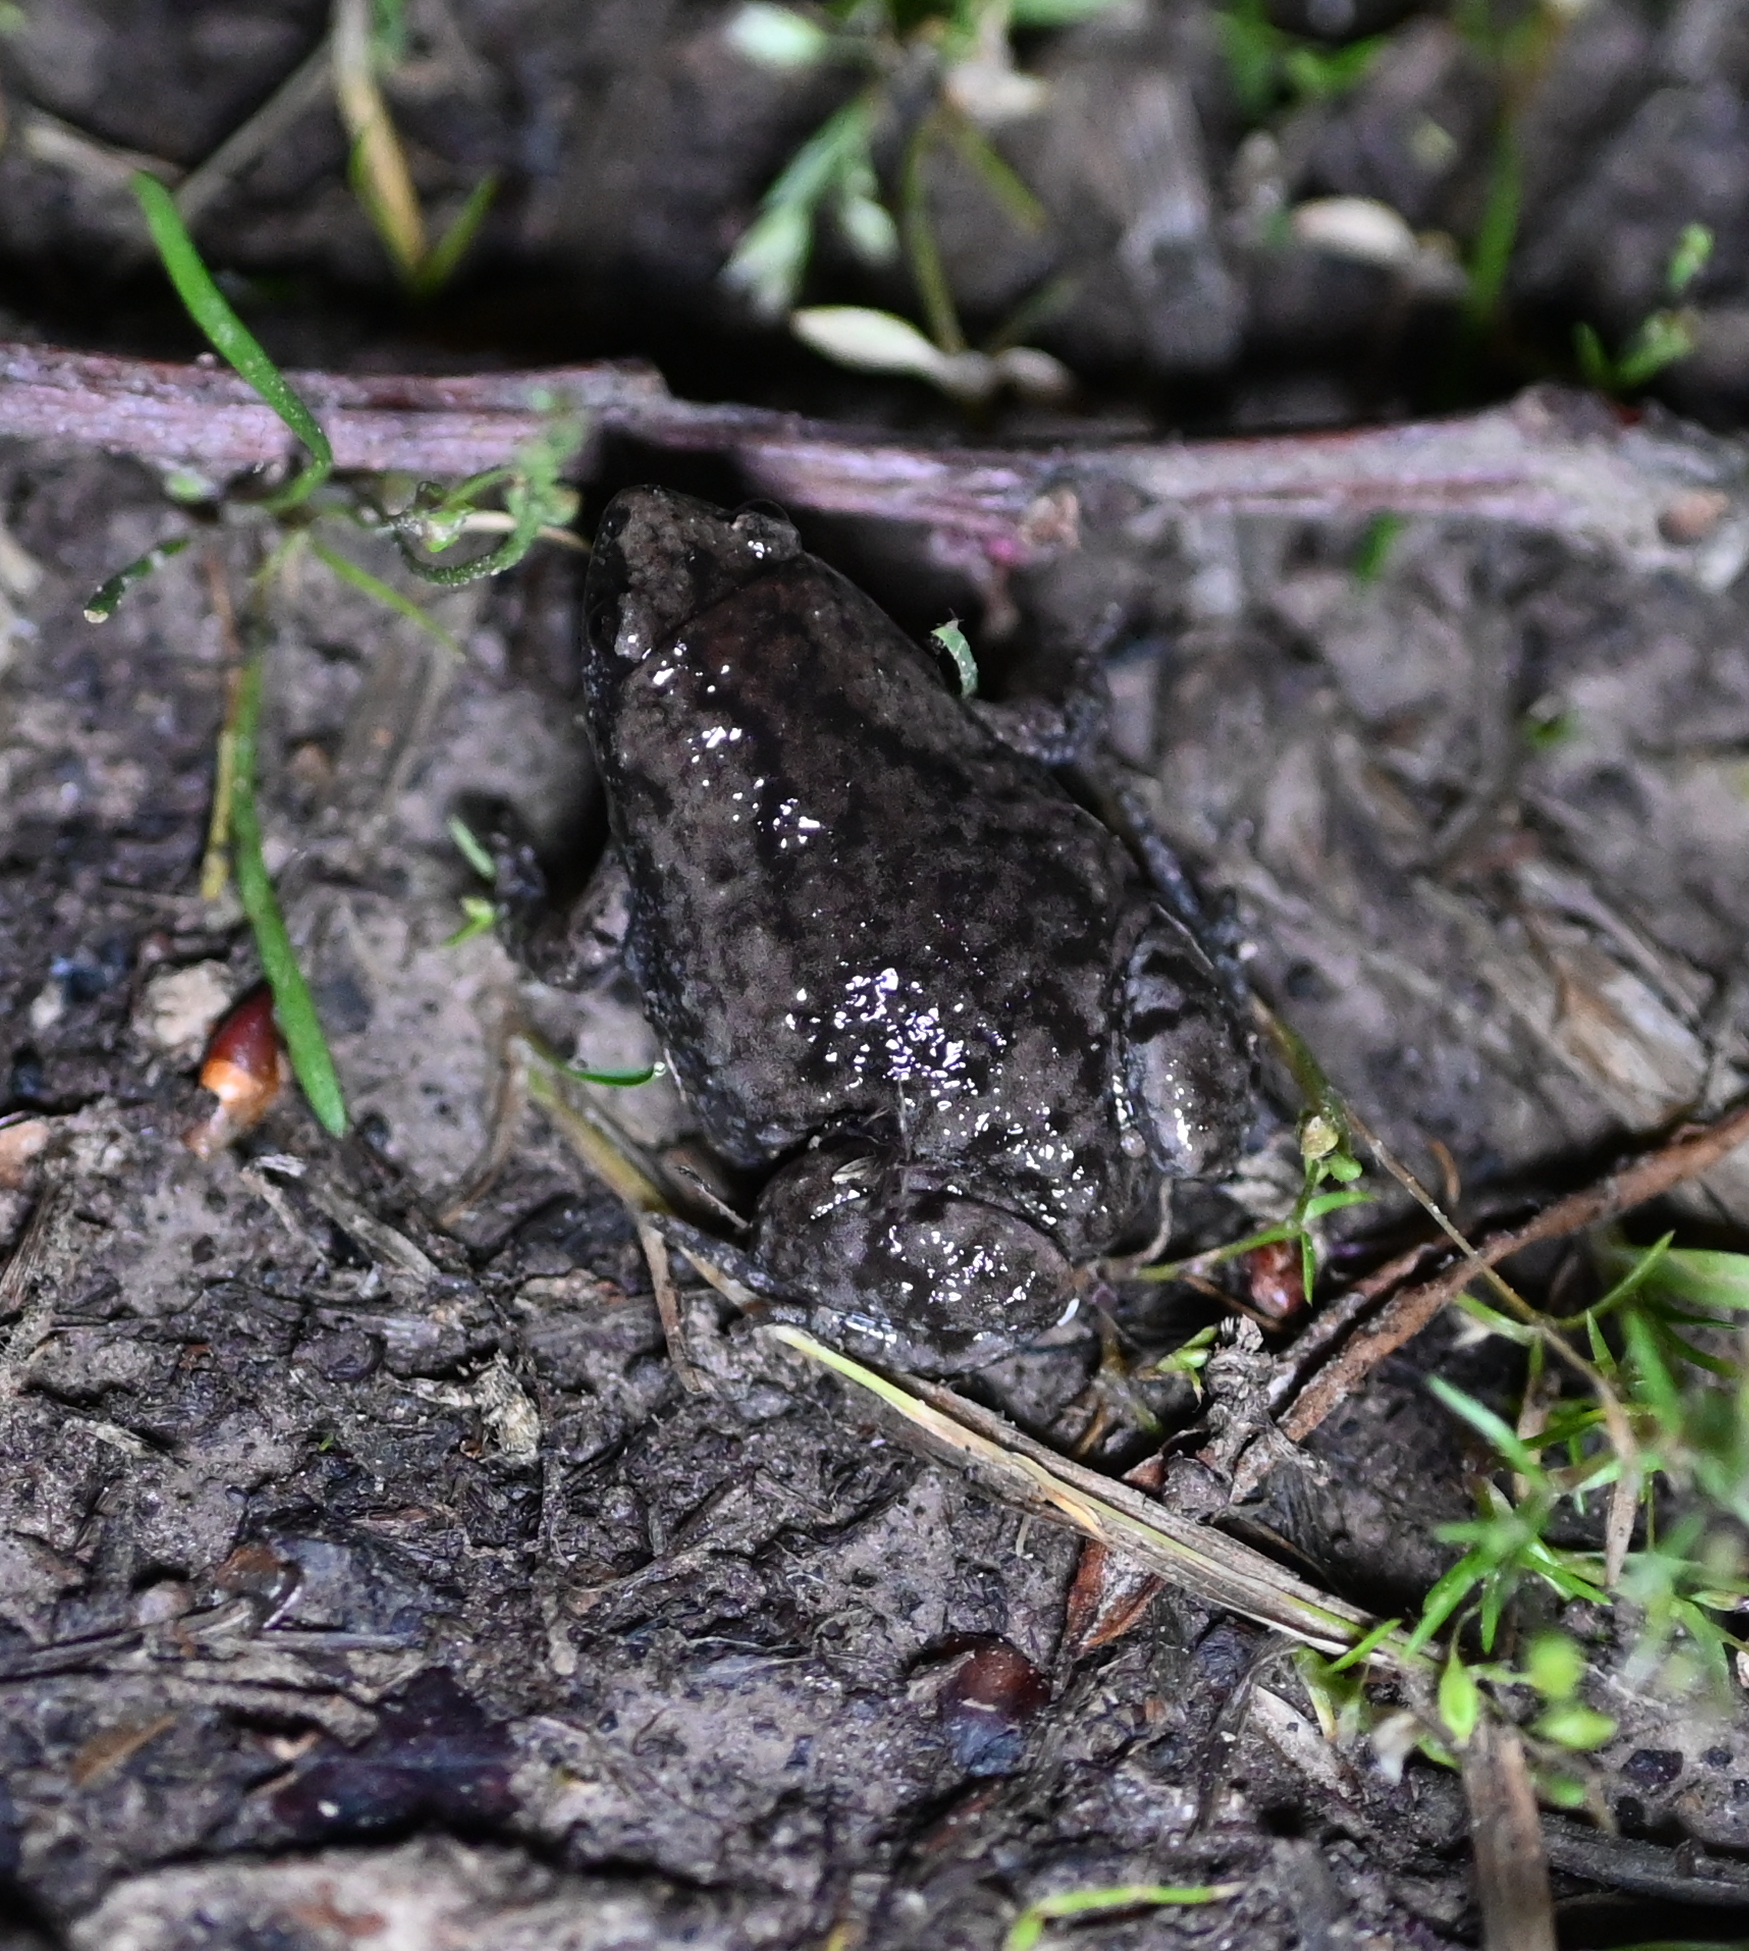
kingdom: Animalia
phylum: Chordata
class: Amphibia
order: Anura
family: Microhylidae
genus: Gastrophryne
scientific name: Gastrophryne carolinensis
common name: Eastern narrowmouth toad
